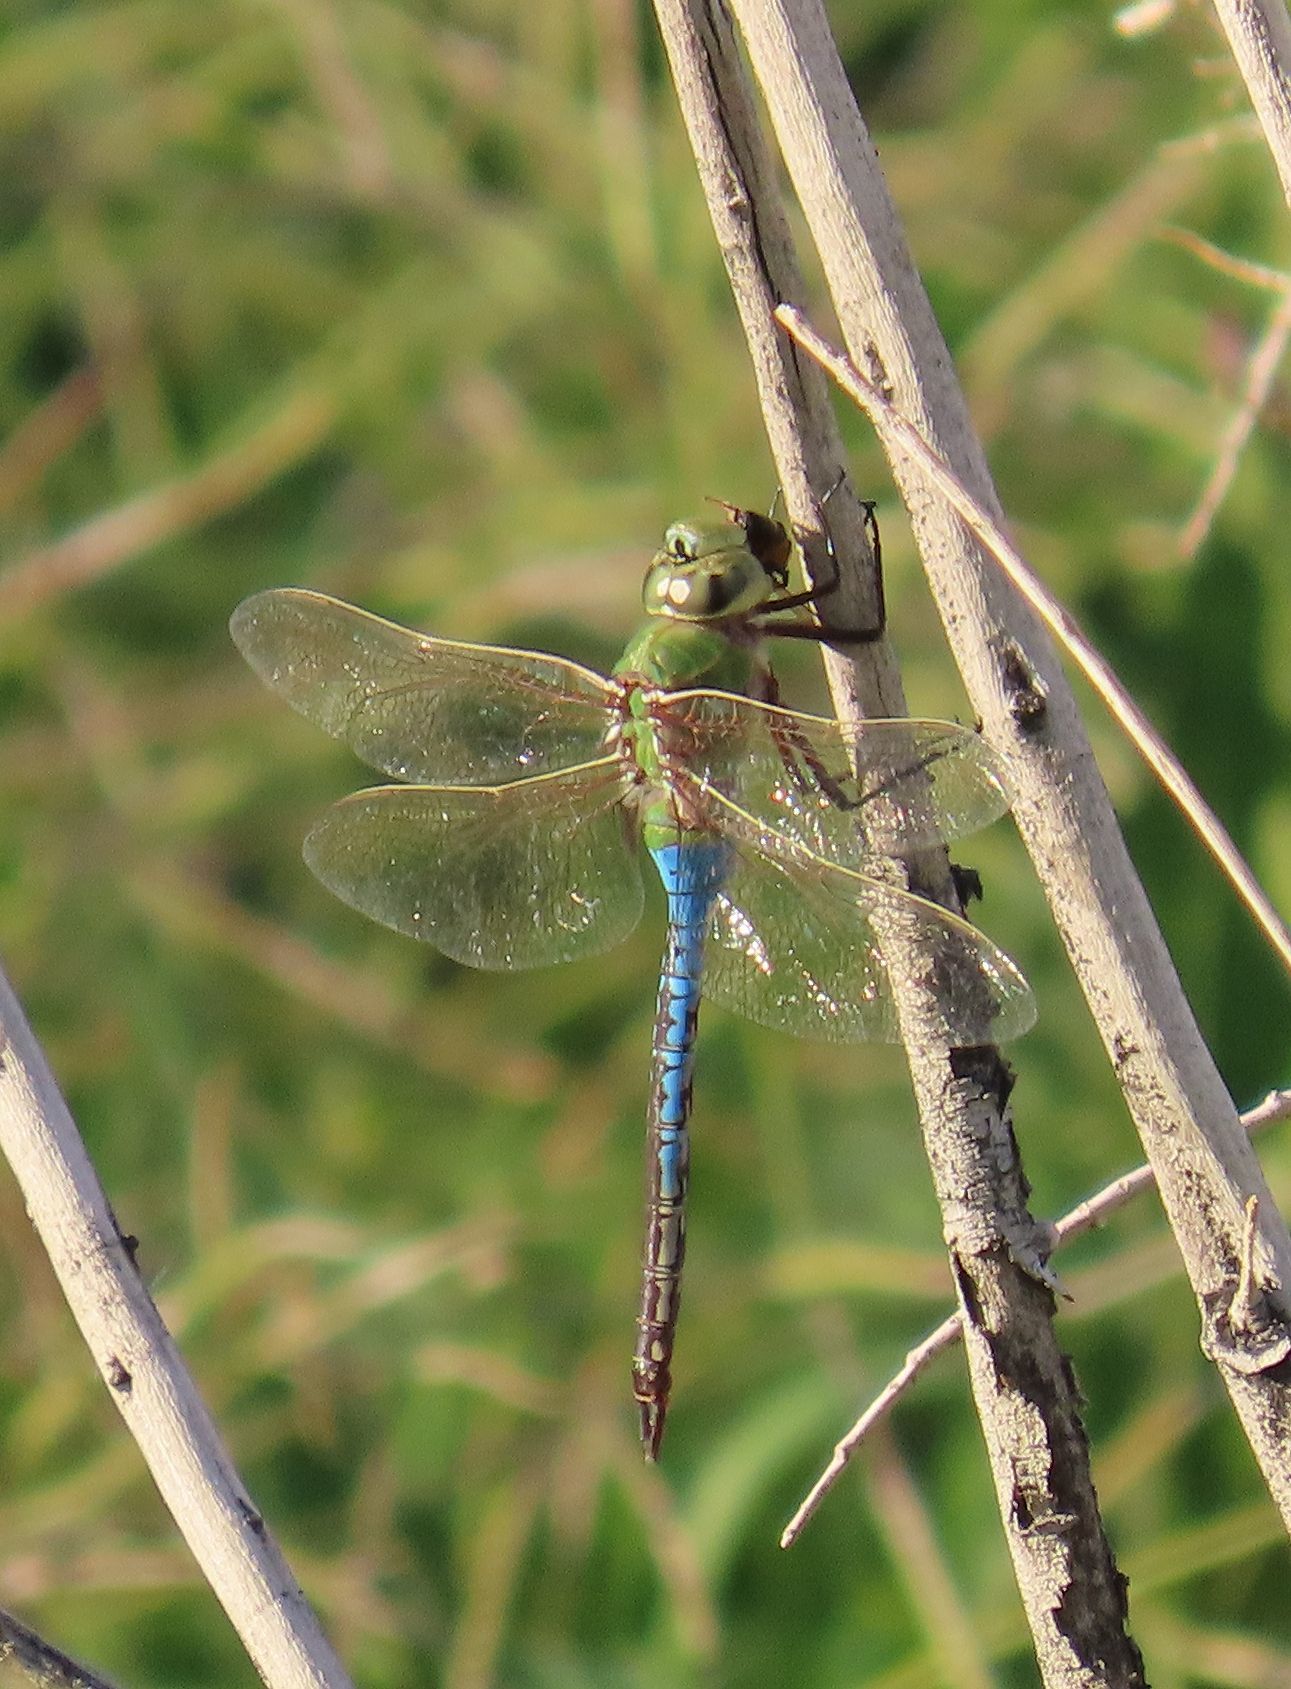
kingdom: Animalia
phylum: Arthropoda
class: Insecta
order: Hymenoptera
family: Apidae
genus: Apis
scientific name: Apis mellifera
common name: Honey bee
